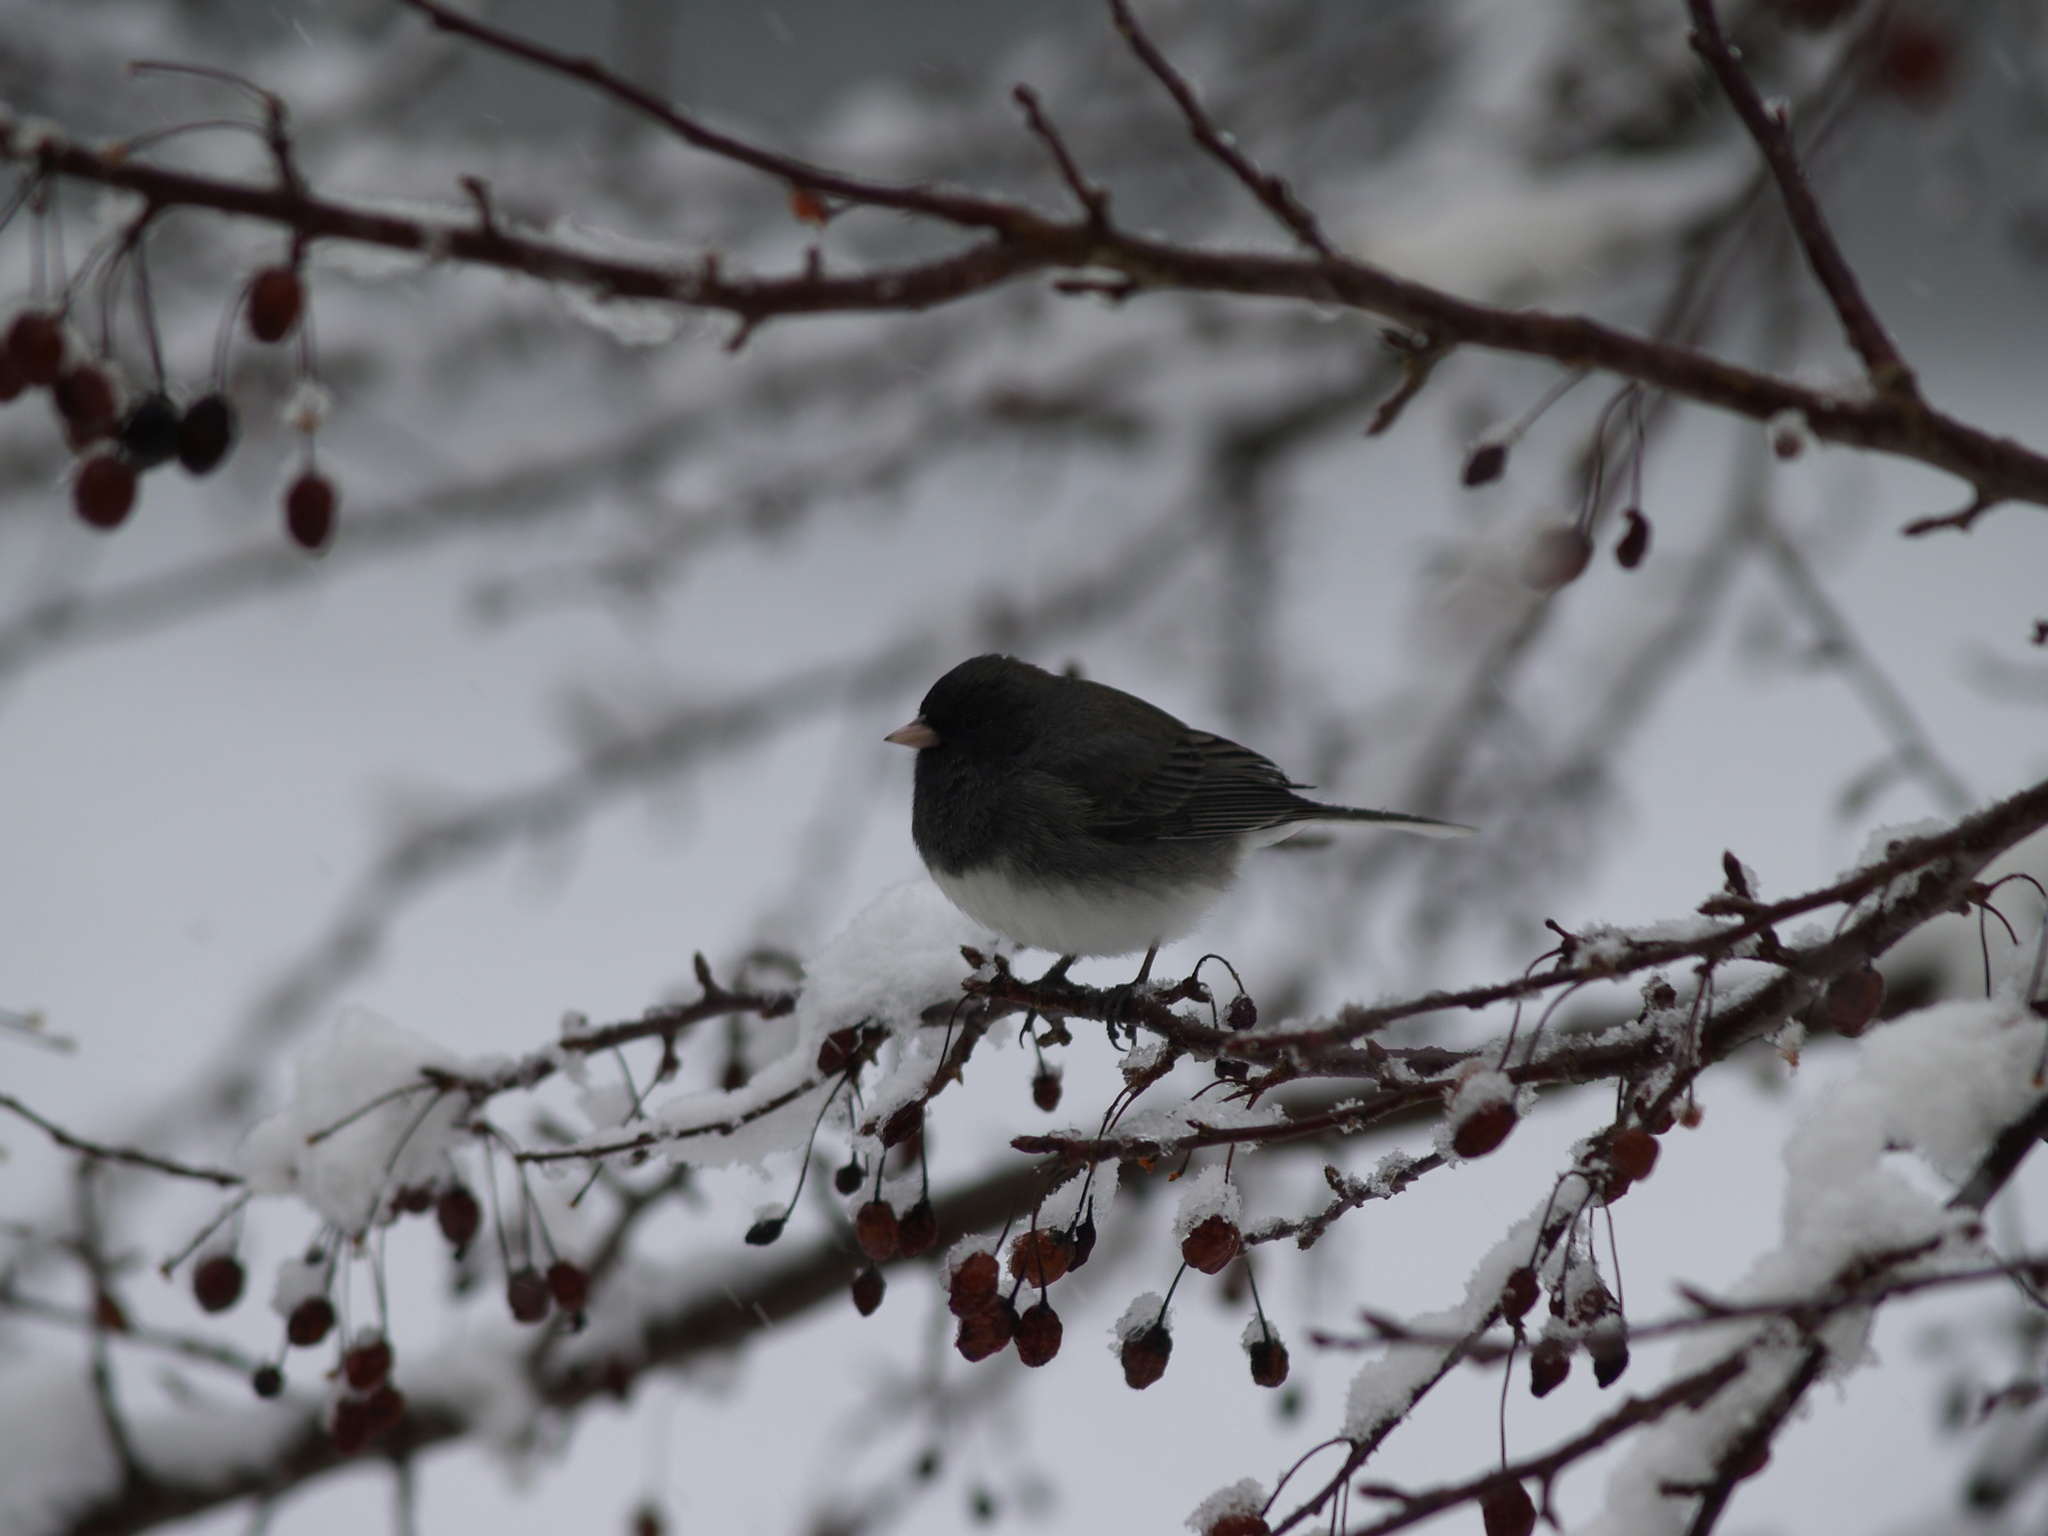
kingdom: Animalia
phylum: Chordata
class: Aves
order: Passeriformes
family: Passerellidae
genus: Junco
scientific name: Junco hyemalis
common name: Dark-eyed junco
